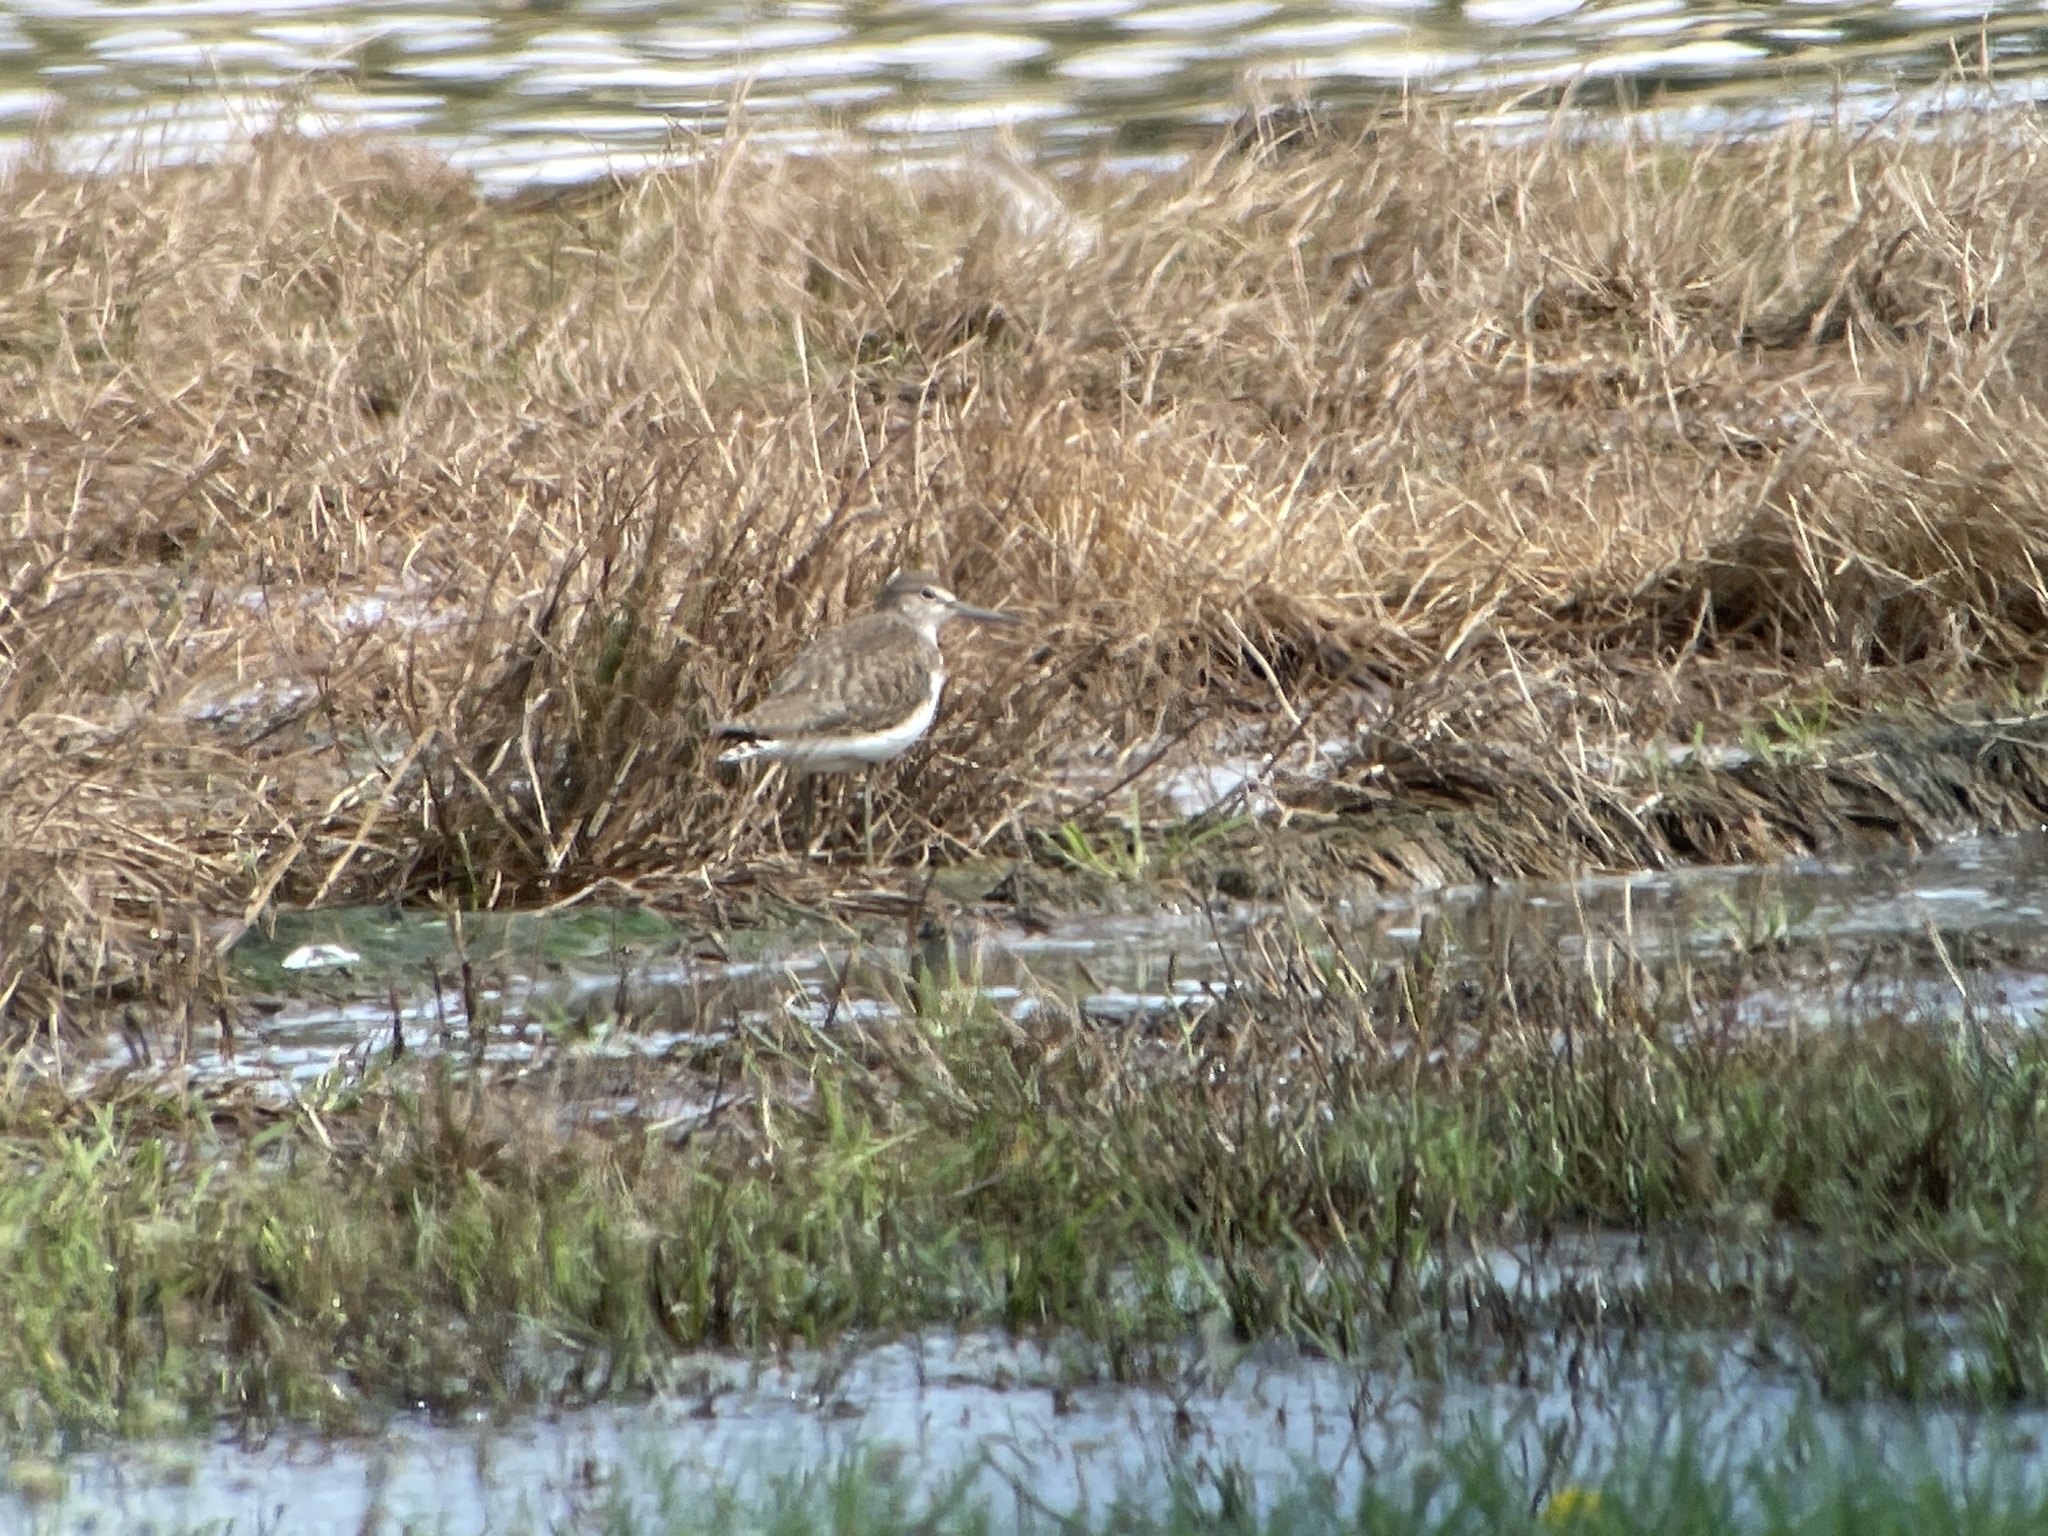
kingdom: Animalia
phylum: Chordata
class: Aves
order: Charadriiformes
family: Scolopacidae
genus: Tringa
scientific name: Tringa ochropus
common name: Green sandpiper
